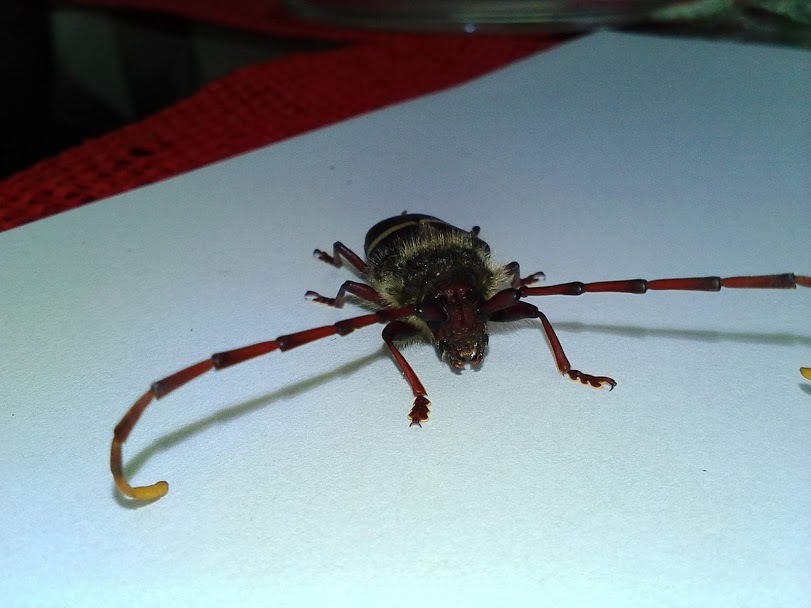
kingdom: Animalia
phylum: Arthropoda
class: Insecta
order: Coleoptera
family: Cerambycidae
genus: Trachyderes
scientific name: Trachyderes elegans
